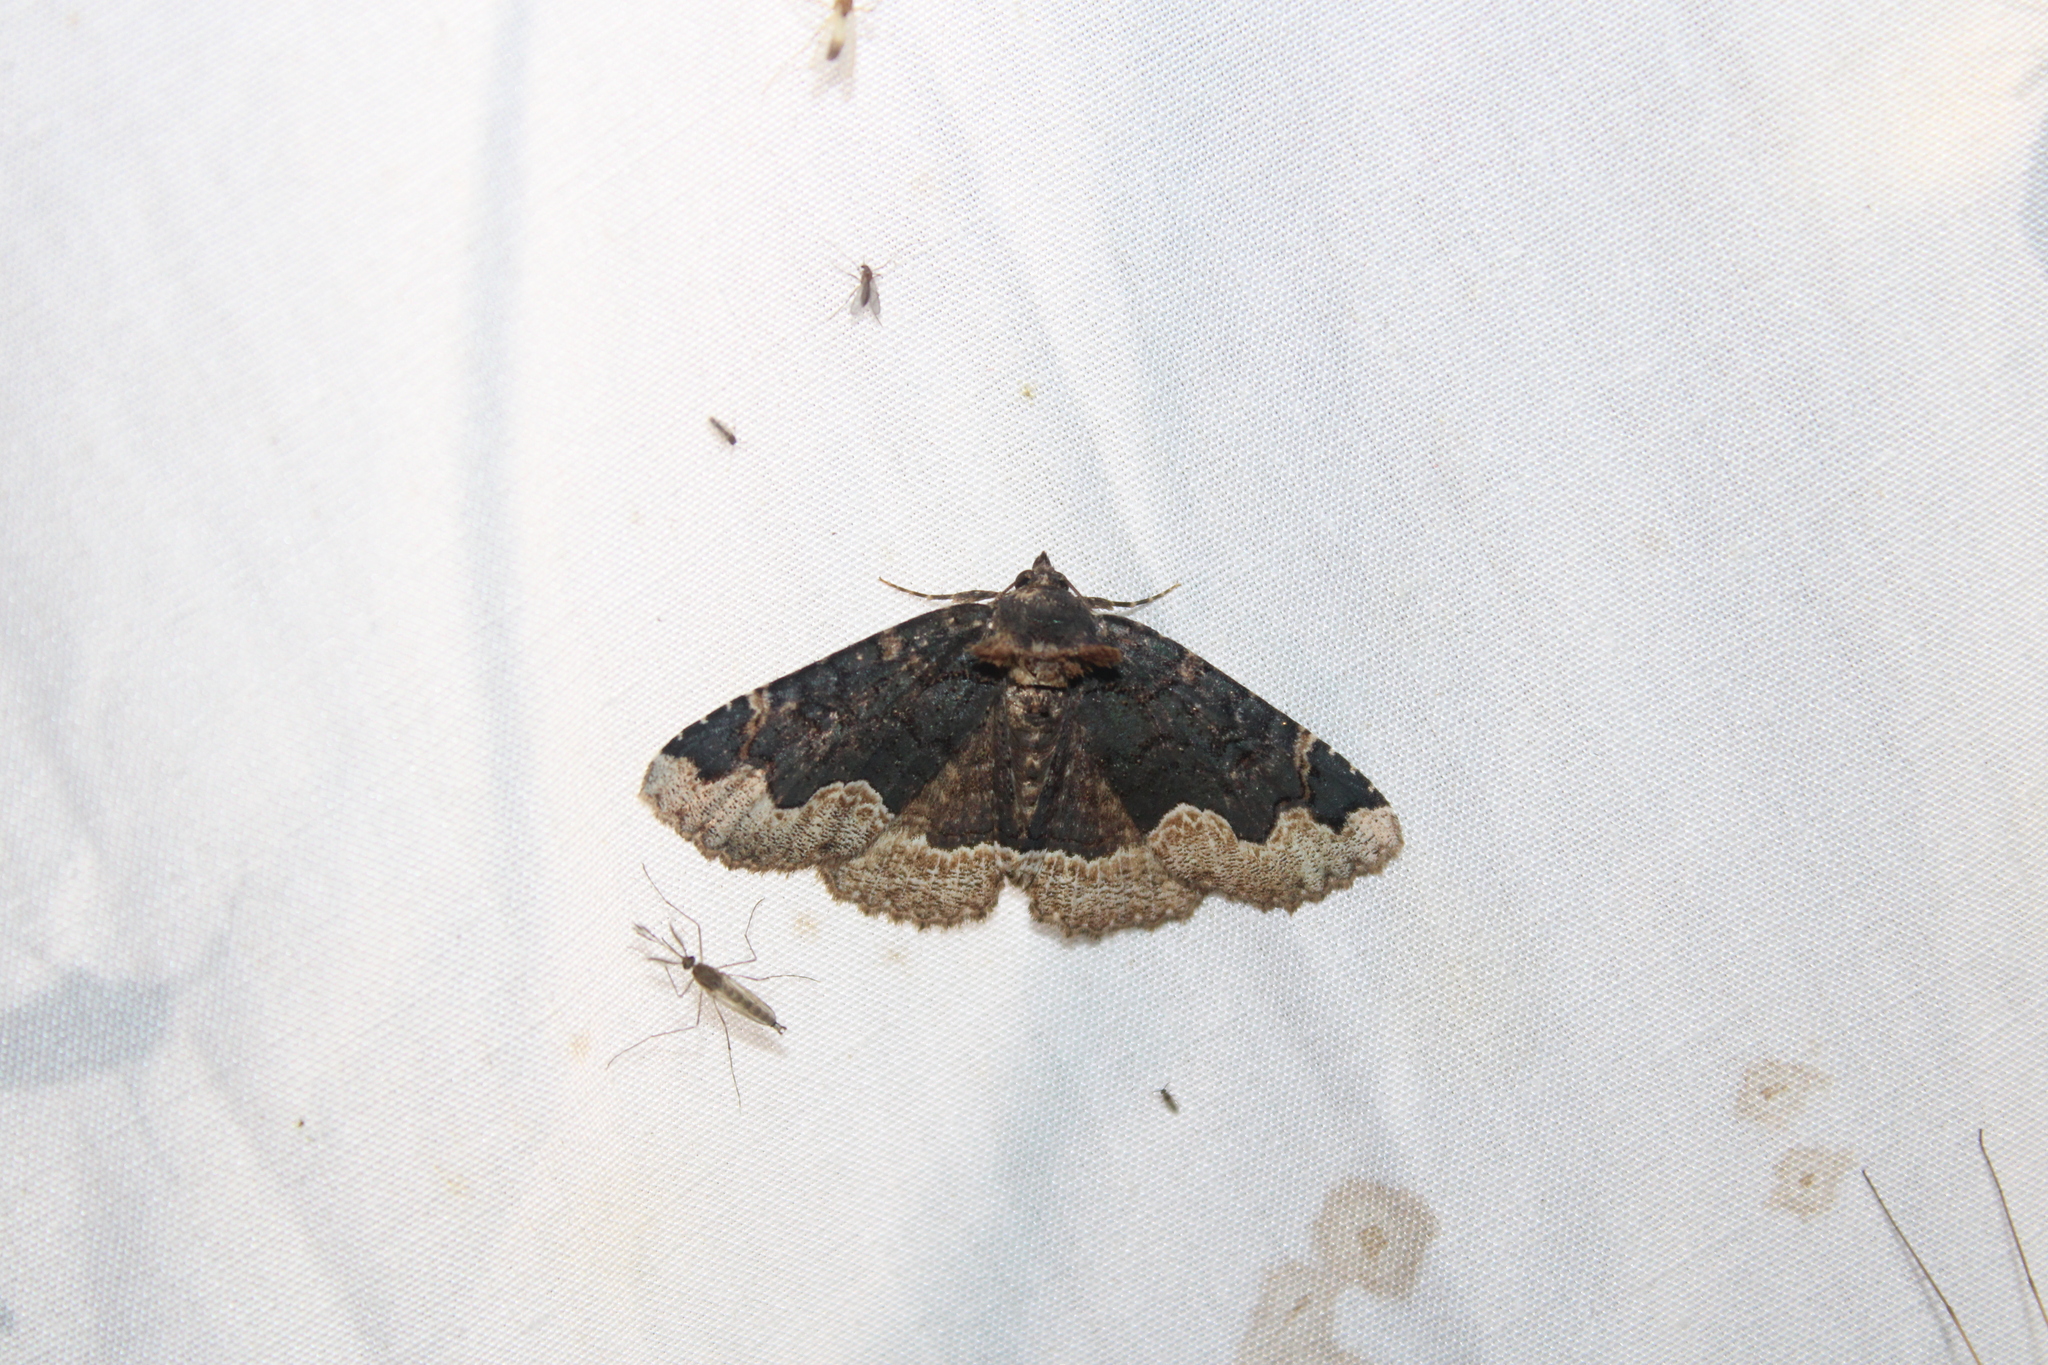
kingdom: Animalia
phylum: Arthropoda
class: Insecta
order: Lepidoptera
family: Erebidae
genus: Zale
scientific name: Zale horrida
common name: Horrid zale moth
